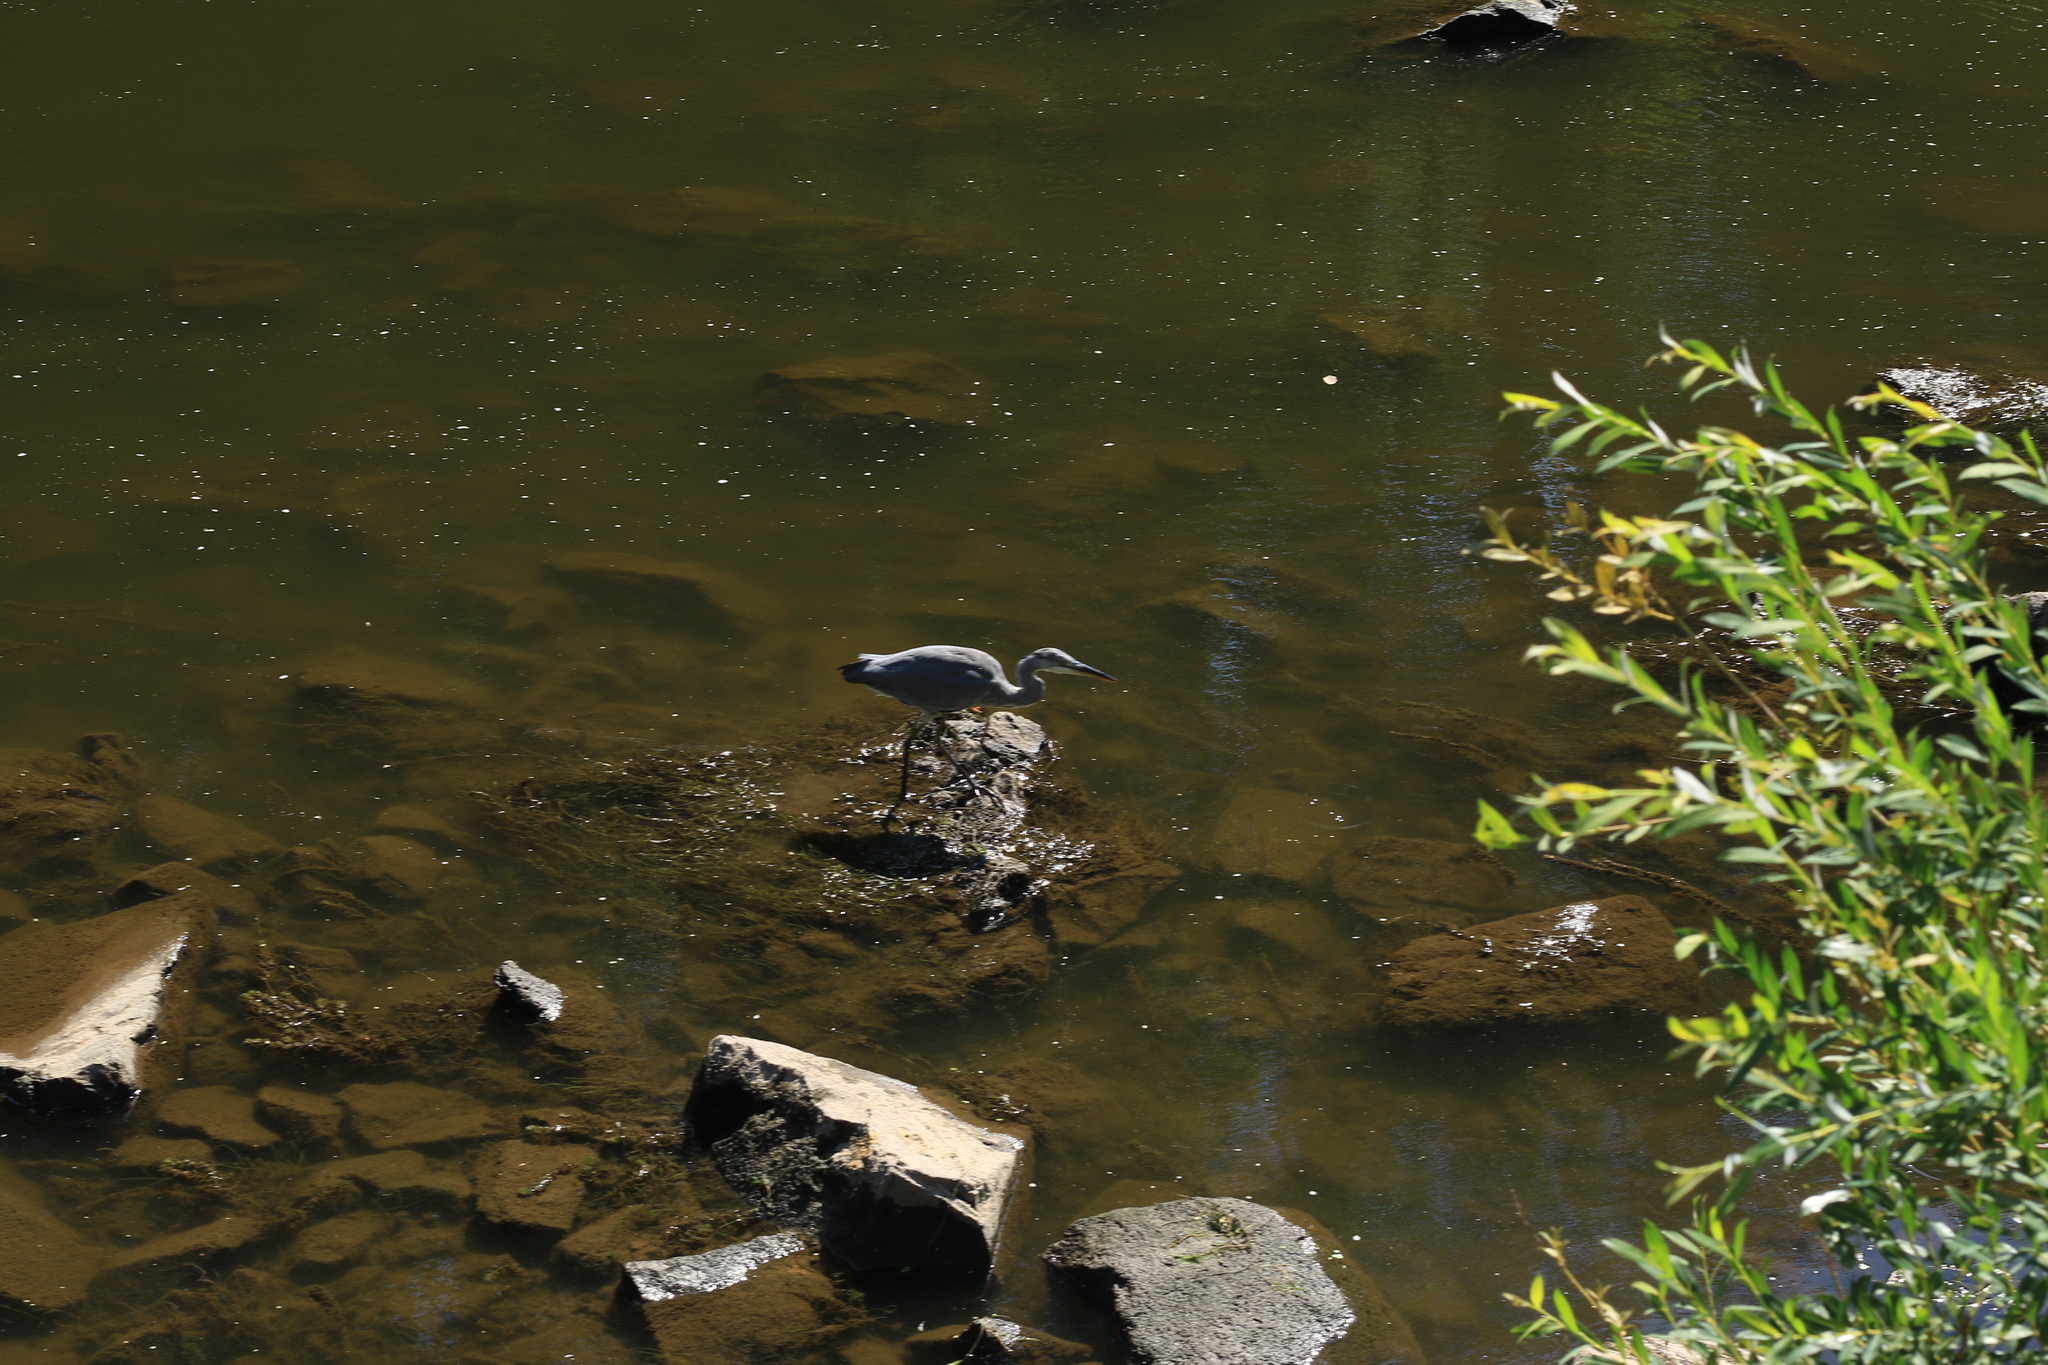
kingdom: Animalia
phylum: Chordata
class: Aves
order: Pelecaniformes
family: Ardeidae
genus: Ardea
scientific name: Ardea cinerea
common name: Grey heron
